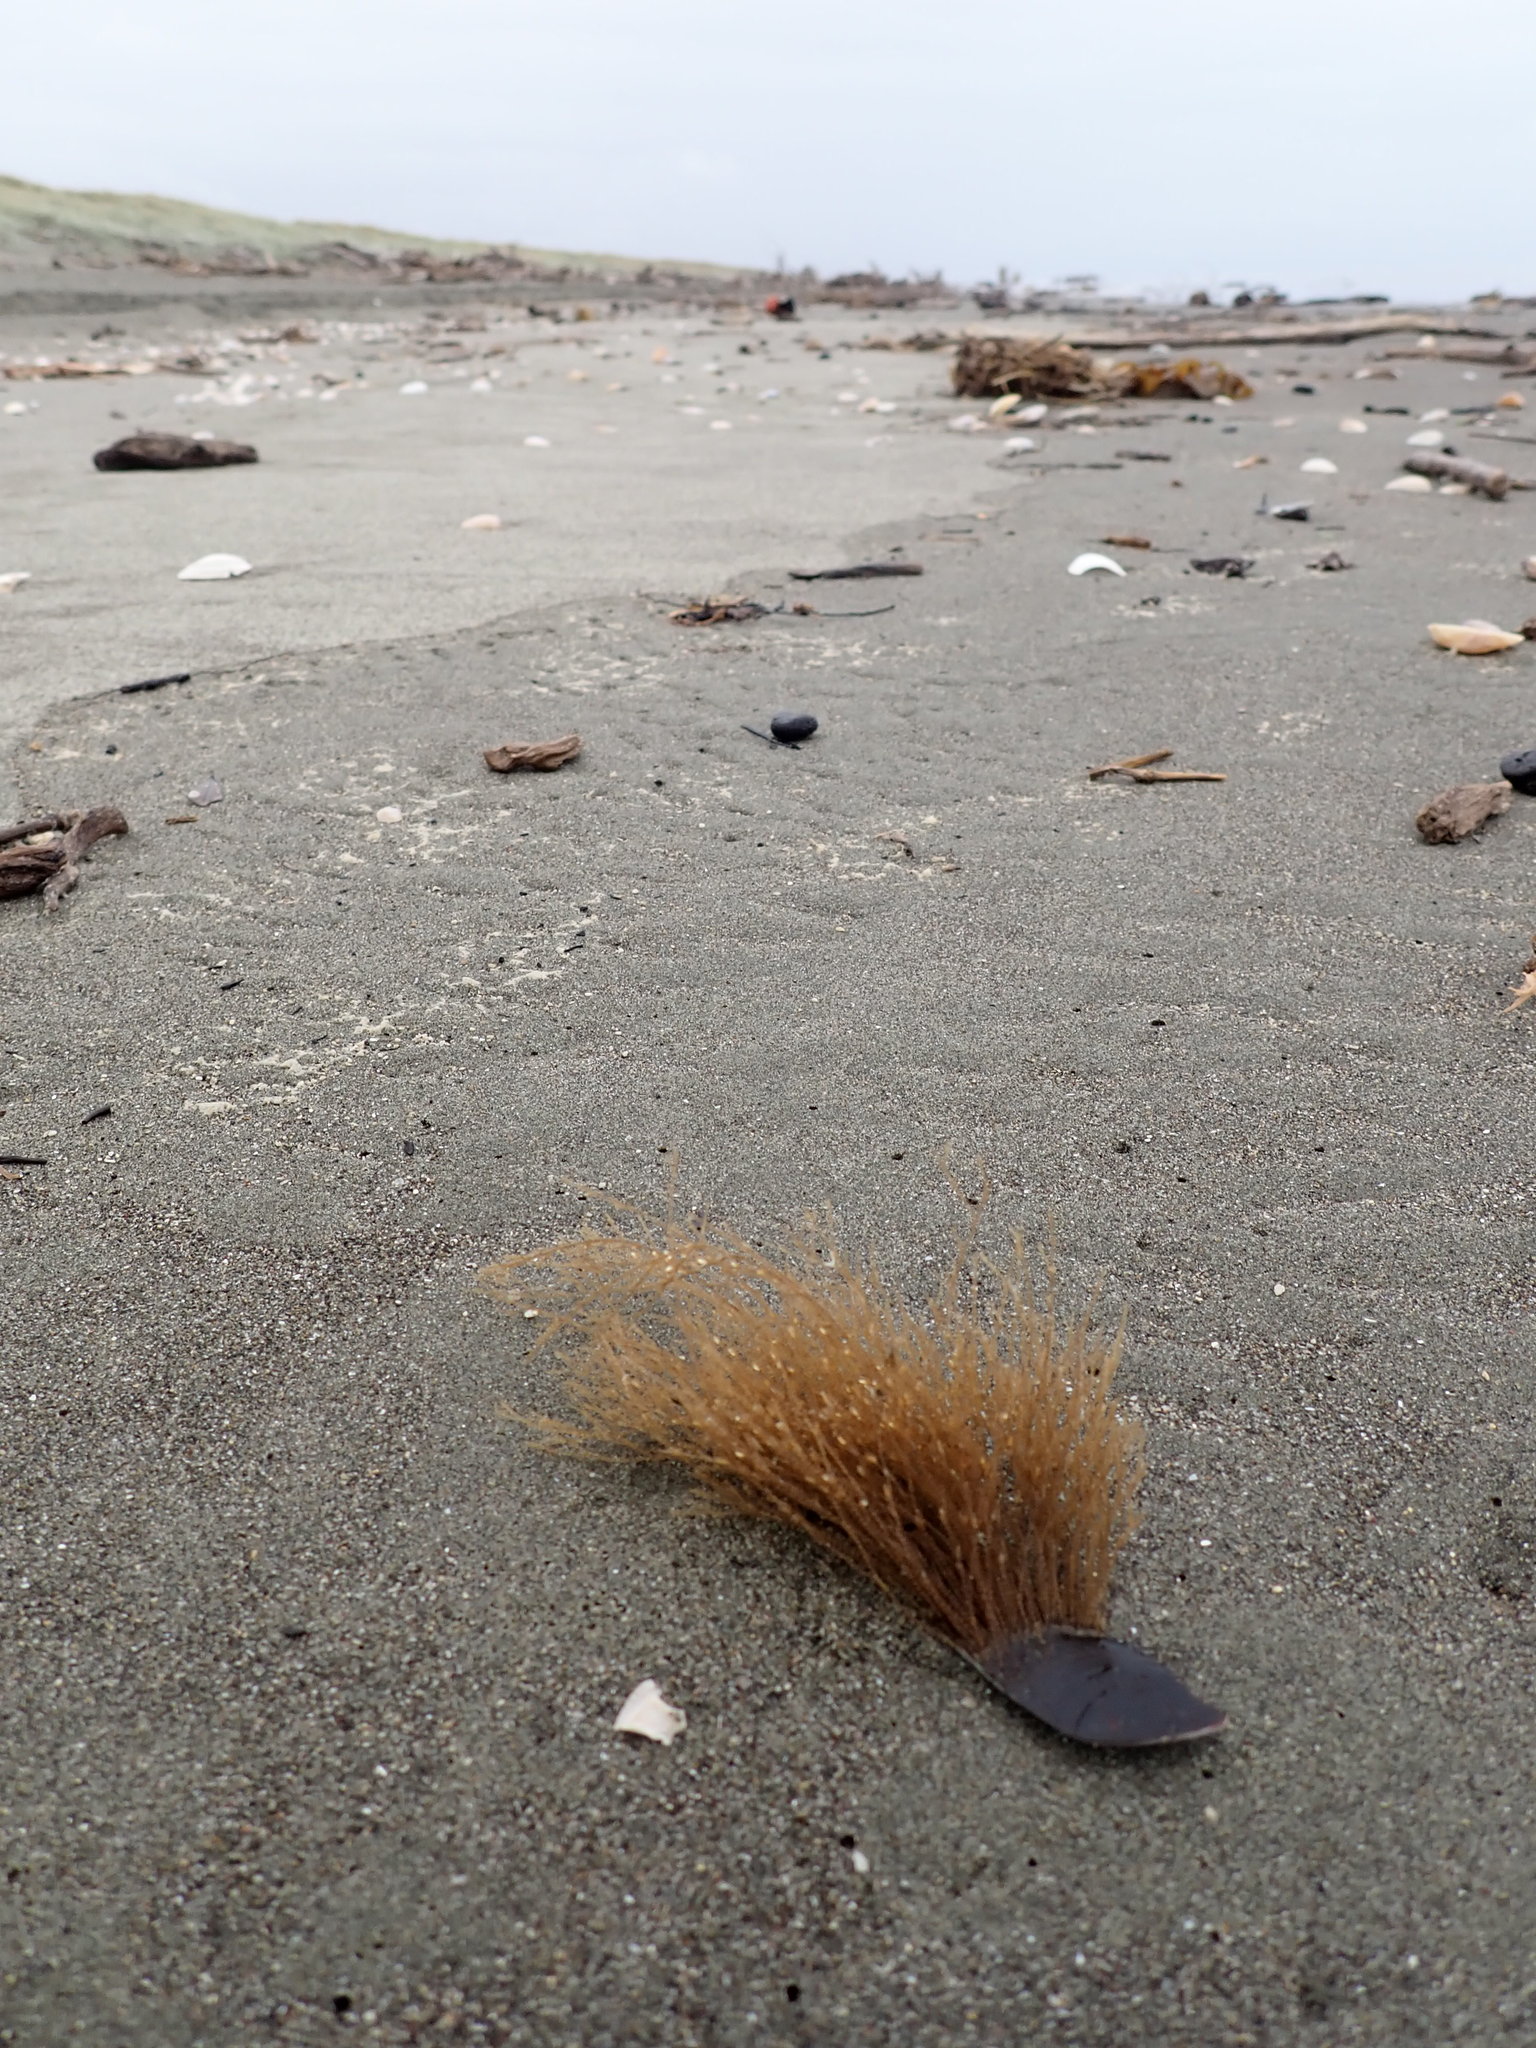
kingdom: Animalia
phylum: Cnidaria
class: Hydrozoa
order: Leptothecata
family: Sertulariidae
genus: Amphisbetia
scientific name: Amphisbetia bispinosa
